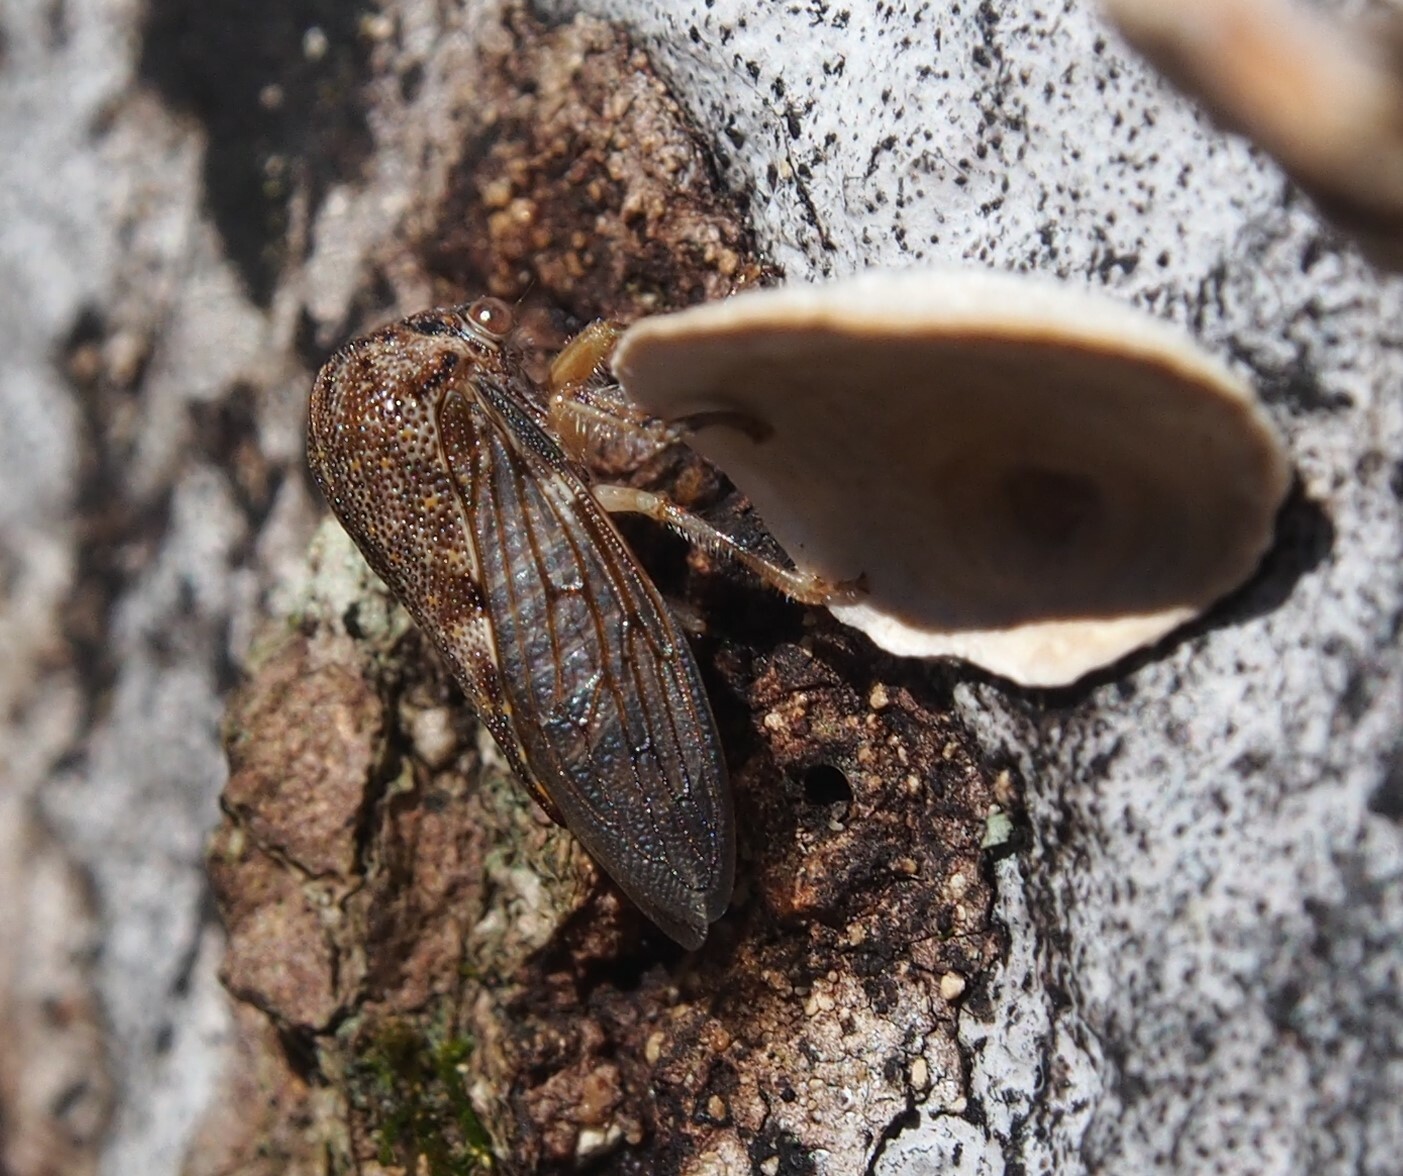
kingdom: Animalia
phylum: Arthropoda
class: Insecta
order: Hemiptera
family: Membracidae
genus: Platycotis
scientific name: Platycotis vittatus
